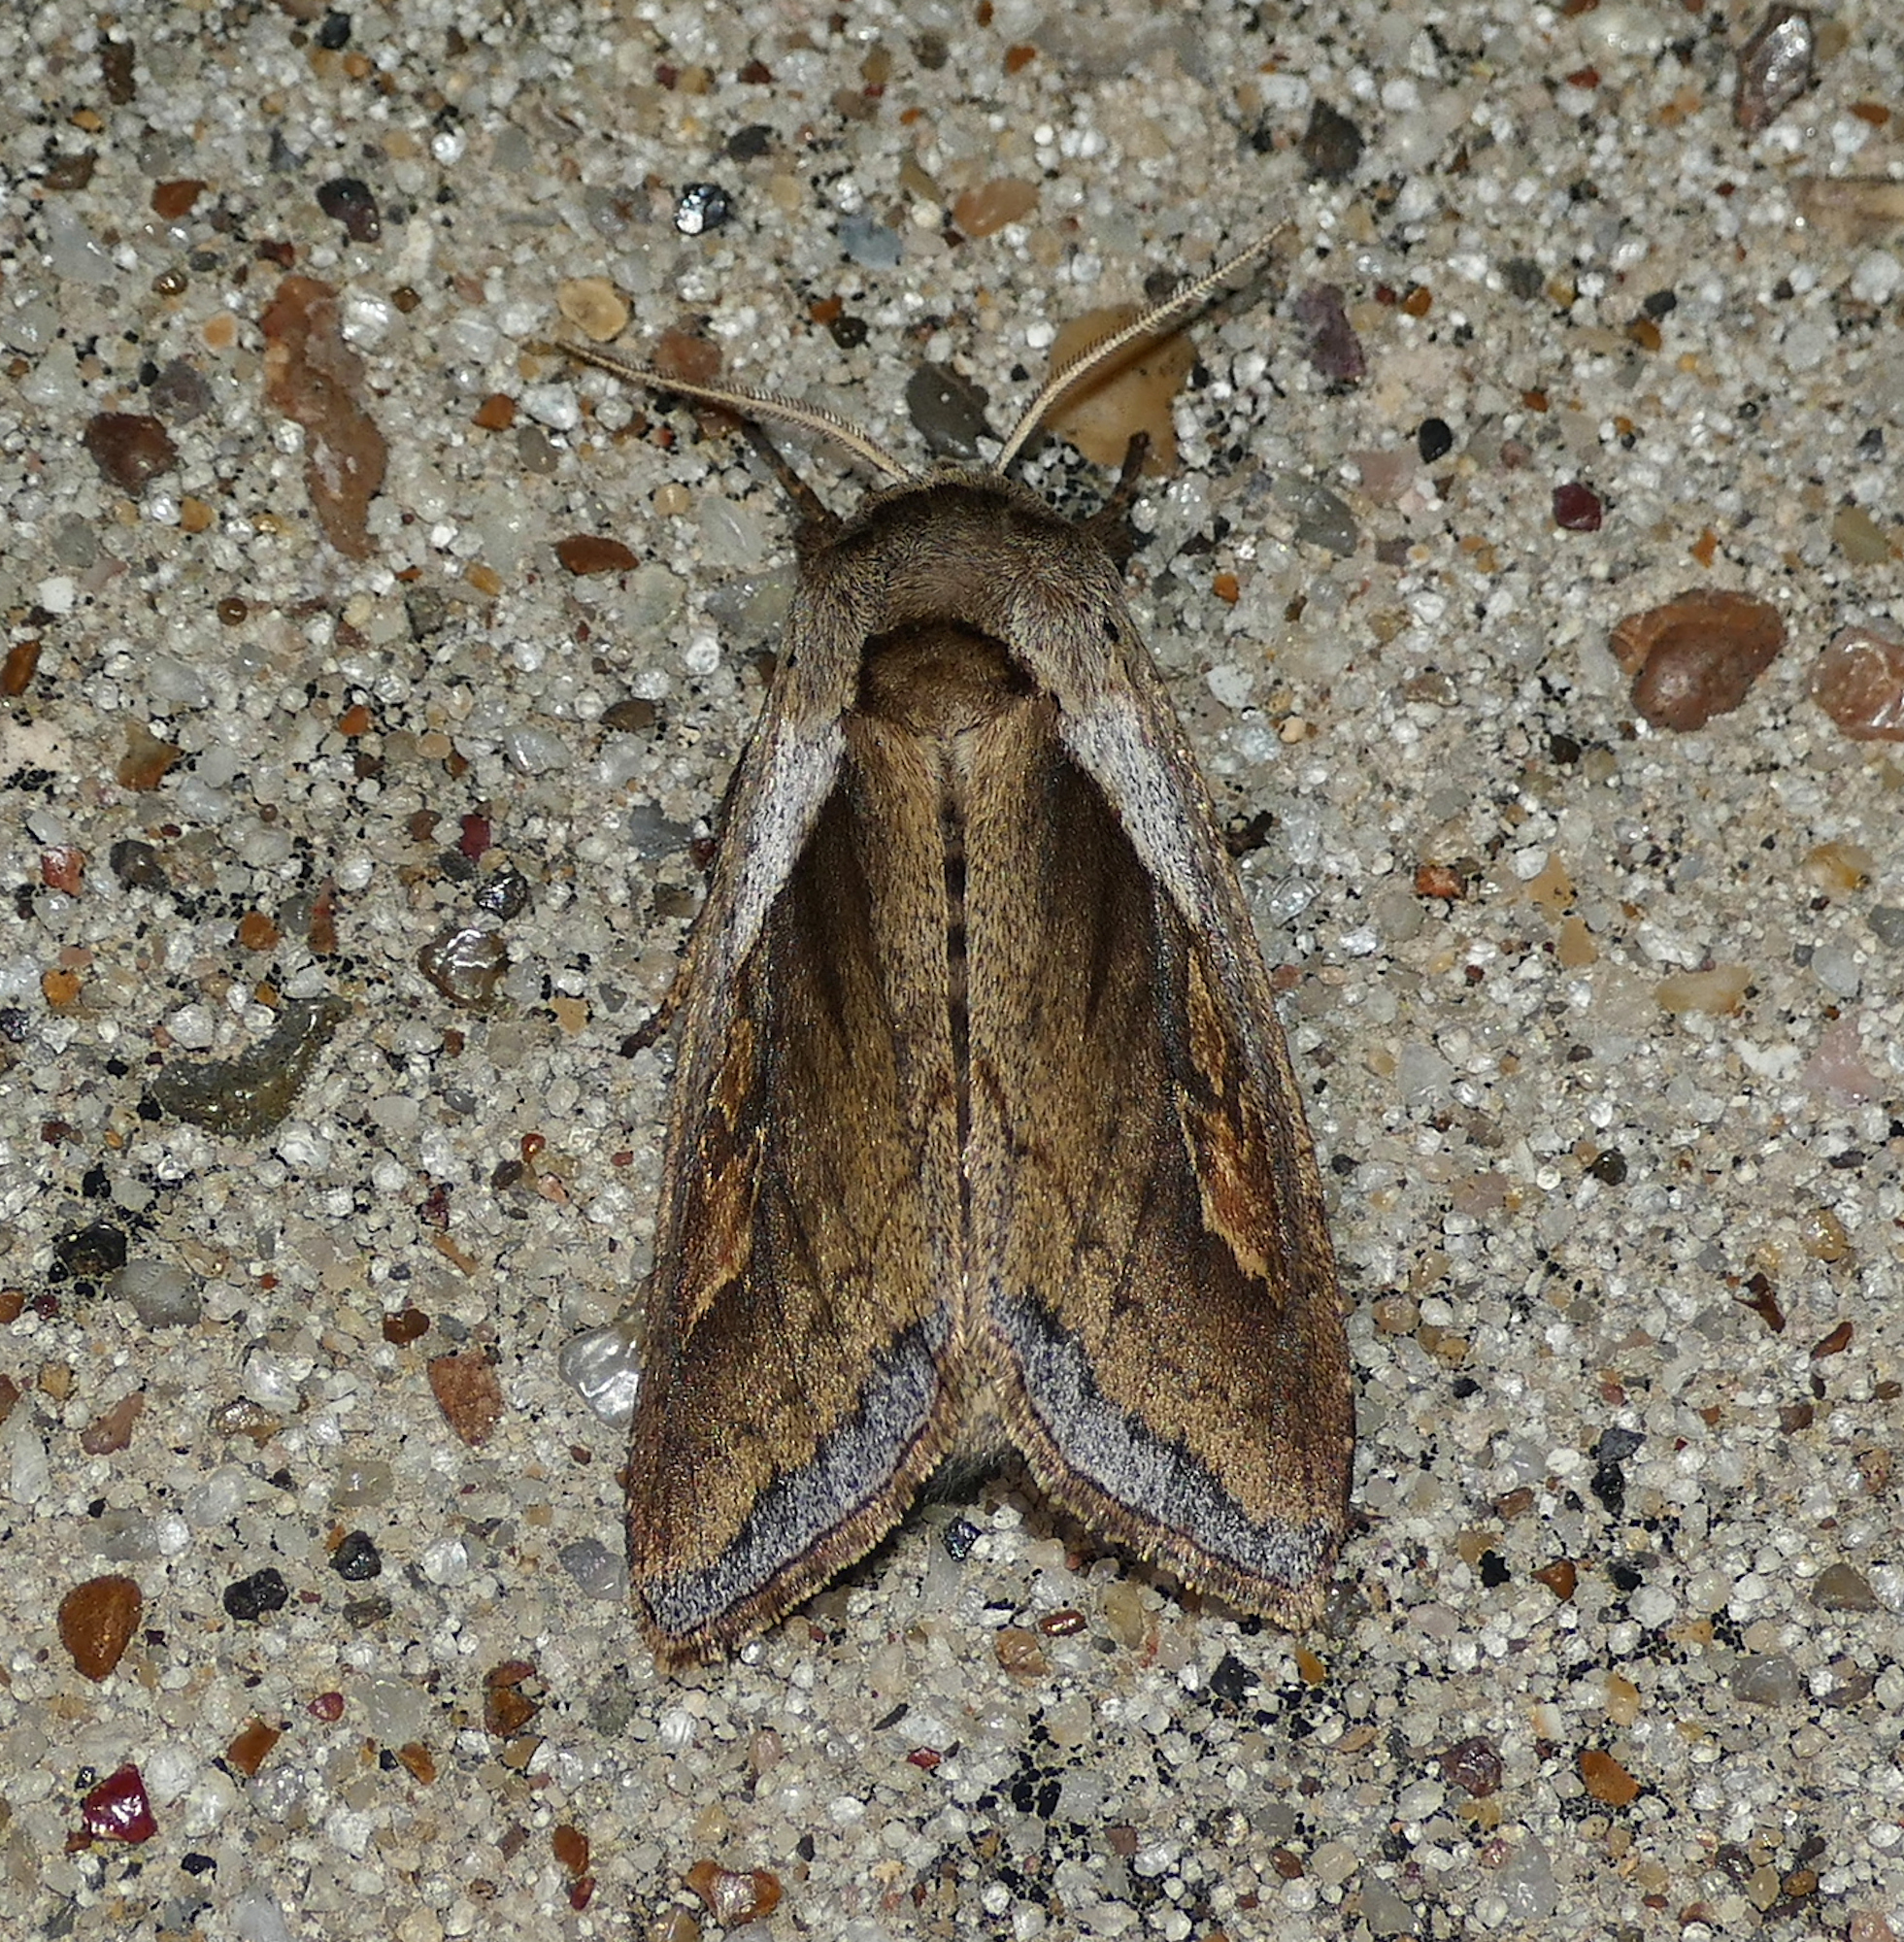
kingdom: Animalia
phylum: Arthropoda
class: Insecta
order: Lepidoptera
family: Noctuidae
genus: Bellura
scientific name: Bellura obliqua
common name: Cattail borer moth
